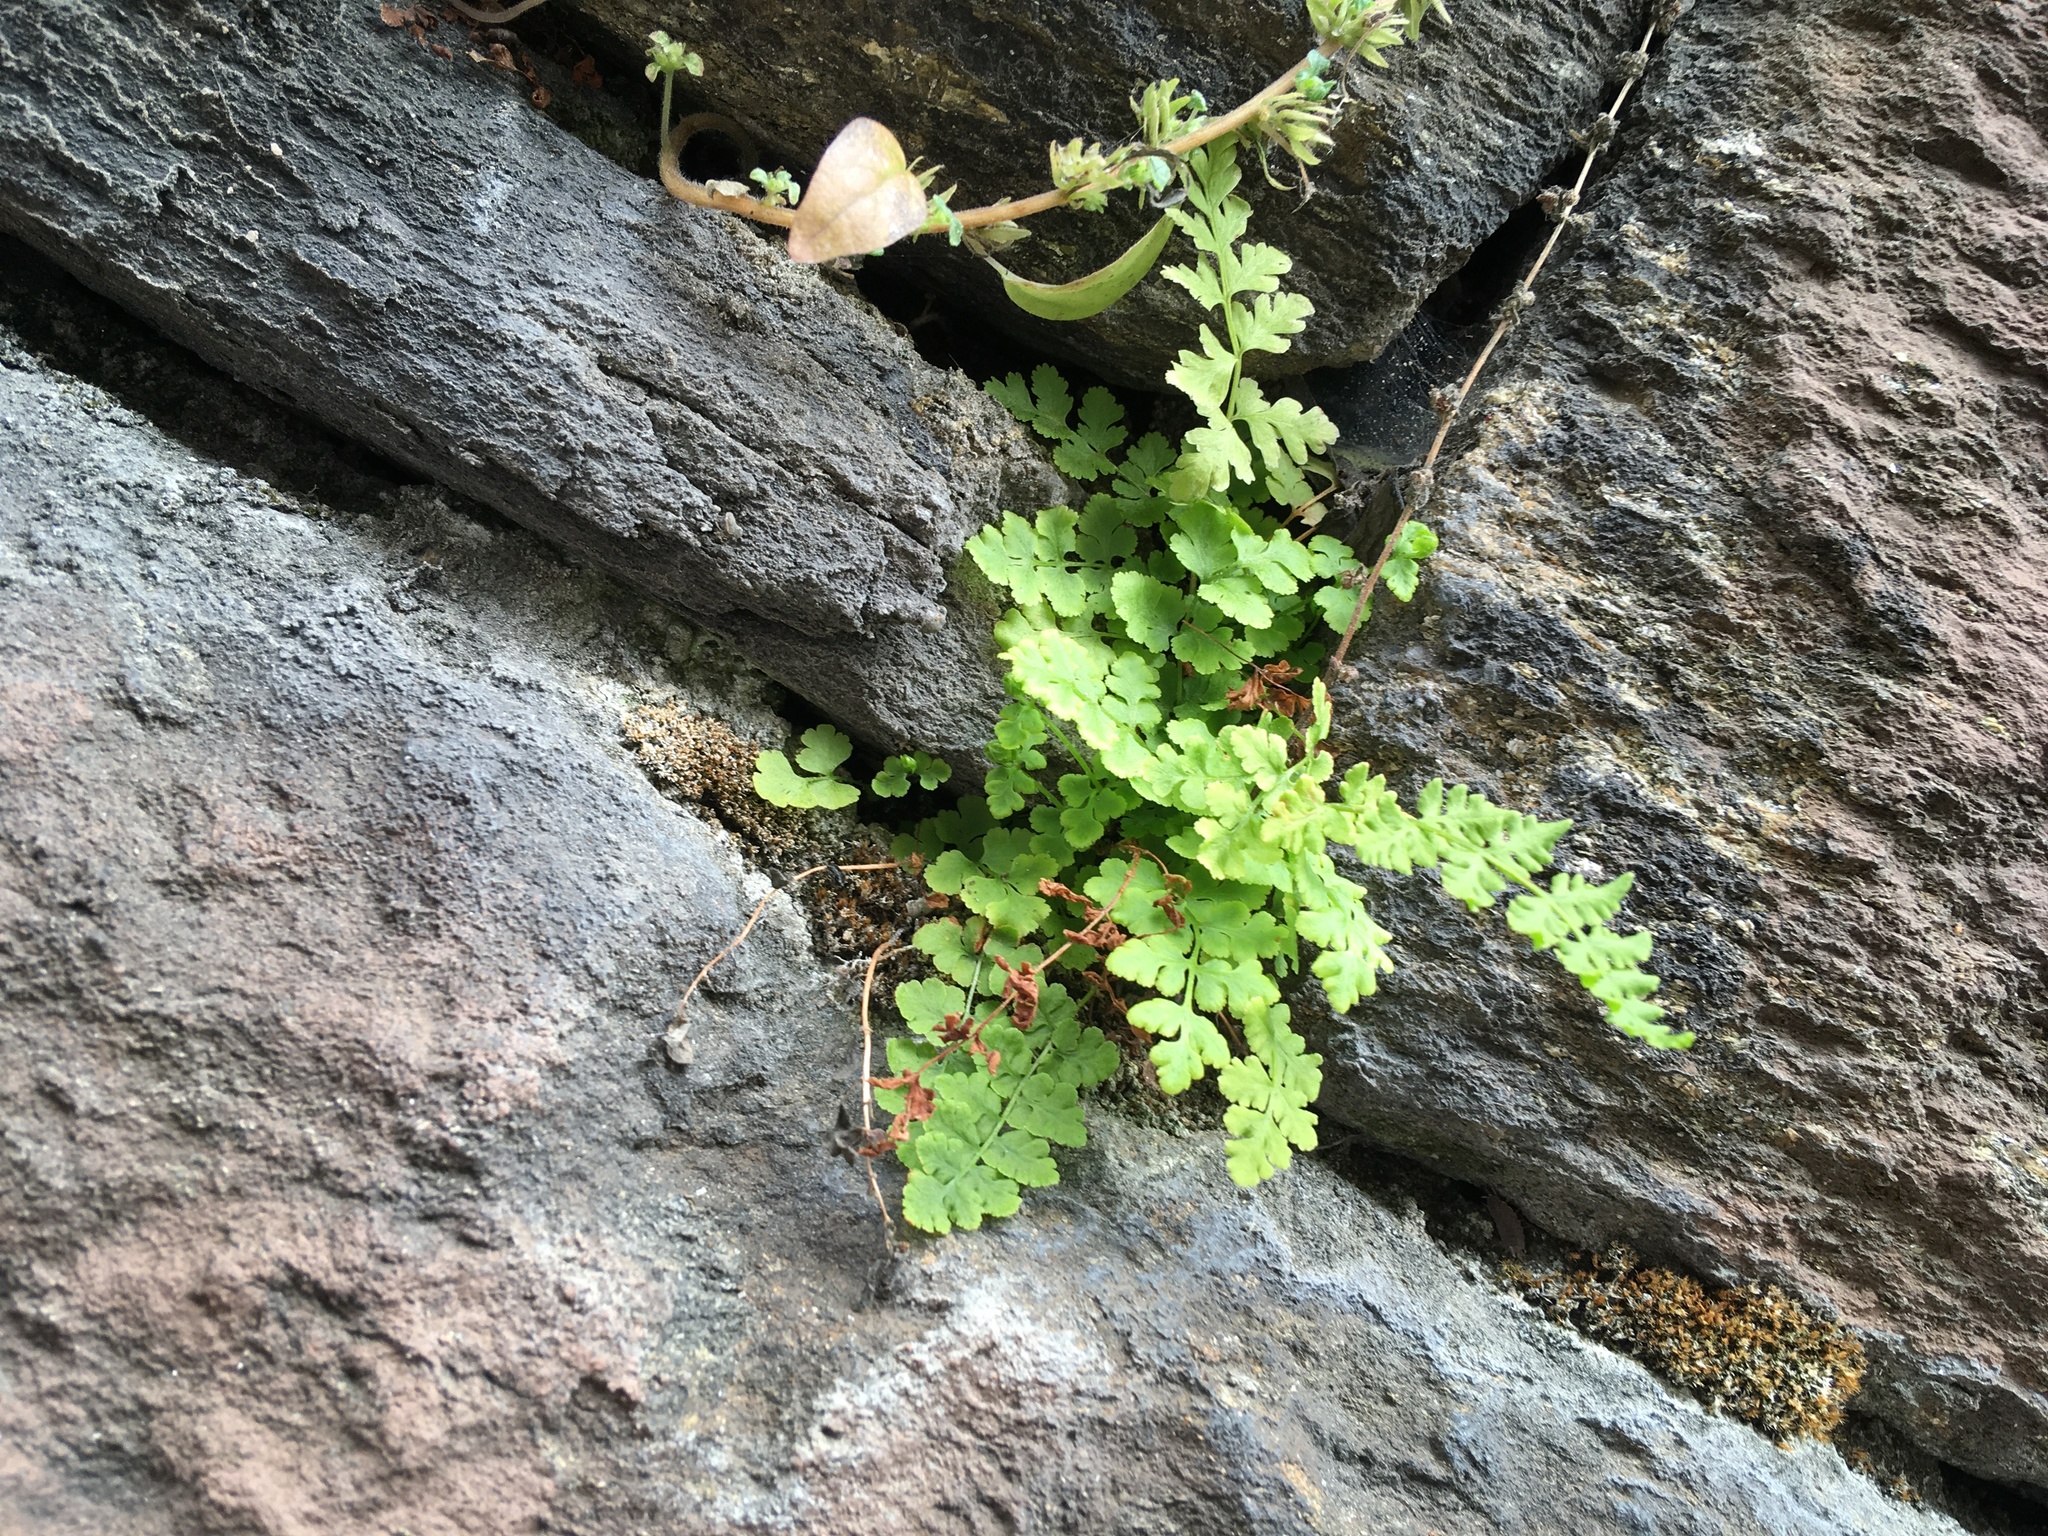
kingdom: Plantae
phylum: Tracheophyta
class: Polypodiopsida
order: Polypodiales
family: Woodsiaceae
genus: Physematium
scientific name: Physematium obtusum
